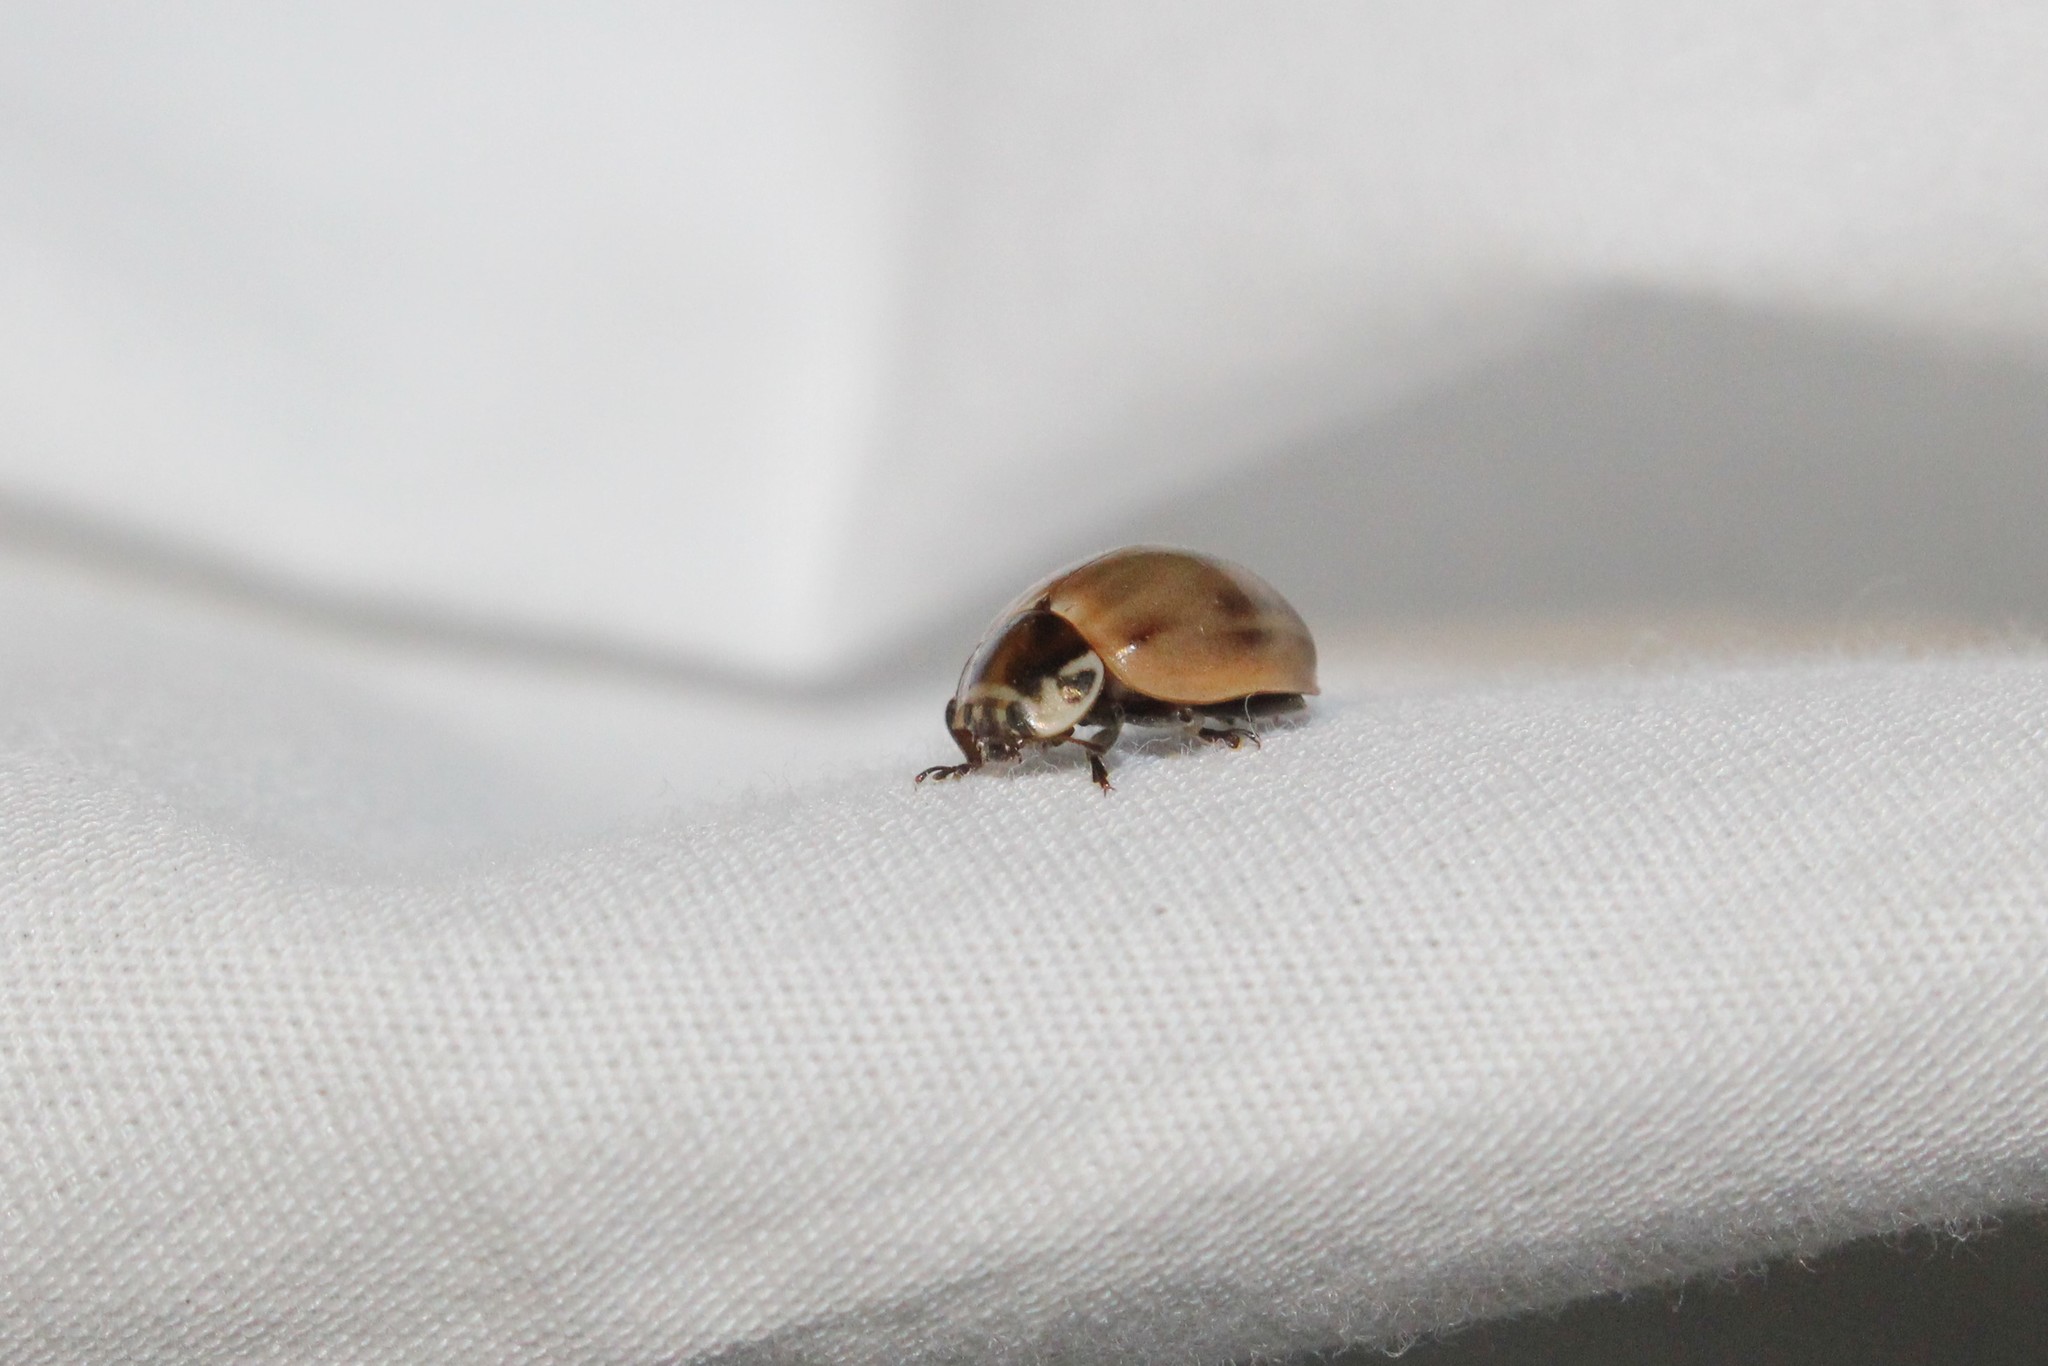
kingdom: Animalia
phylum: Arthropoda
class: Insecta
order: Coleoptera
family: Coccinellidae
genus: Myzia
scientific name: Myzia pullata
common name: Streaked lady beetle
